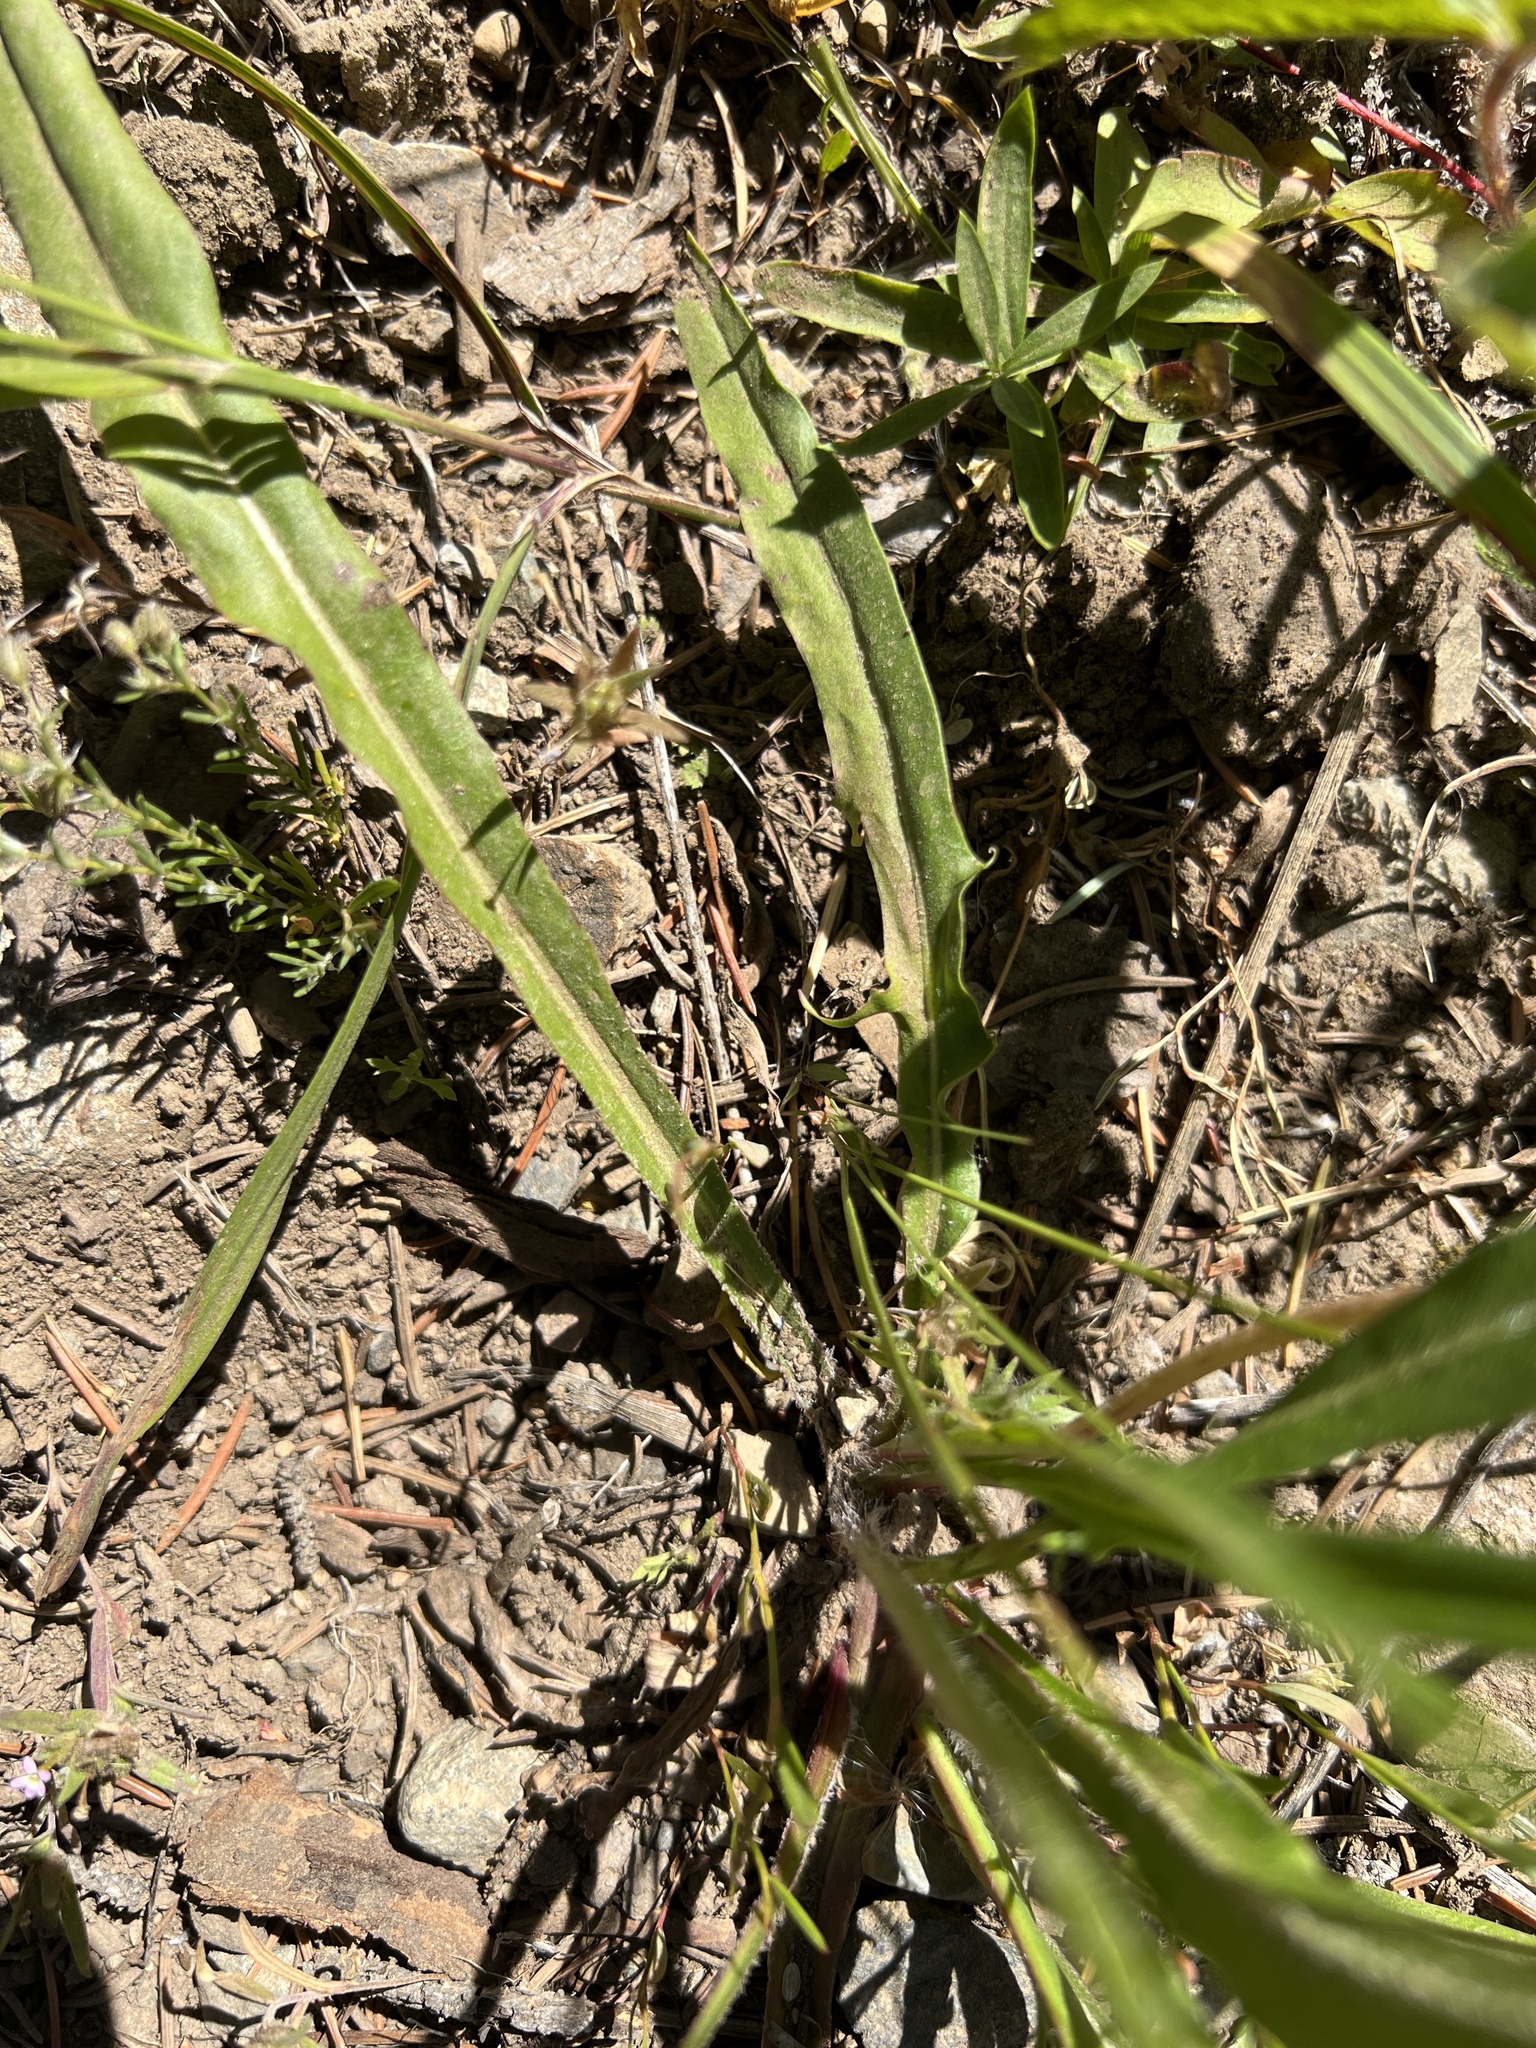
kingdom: Plantae
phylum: Tracheophyta
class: Magnoliopsida
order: Asterales
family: Asteraceae
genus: Agoseris
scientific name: Agoseris aurantiaca
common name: Mountain agoseris
